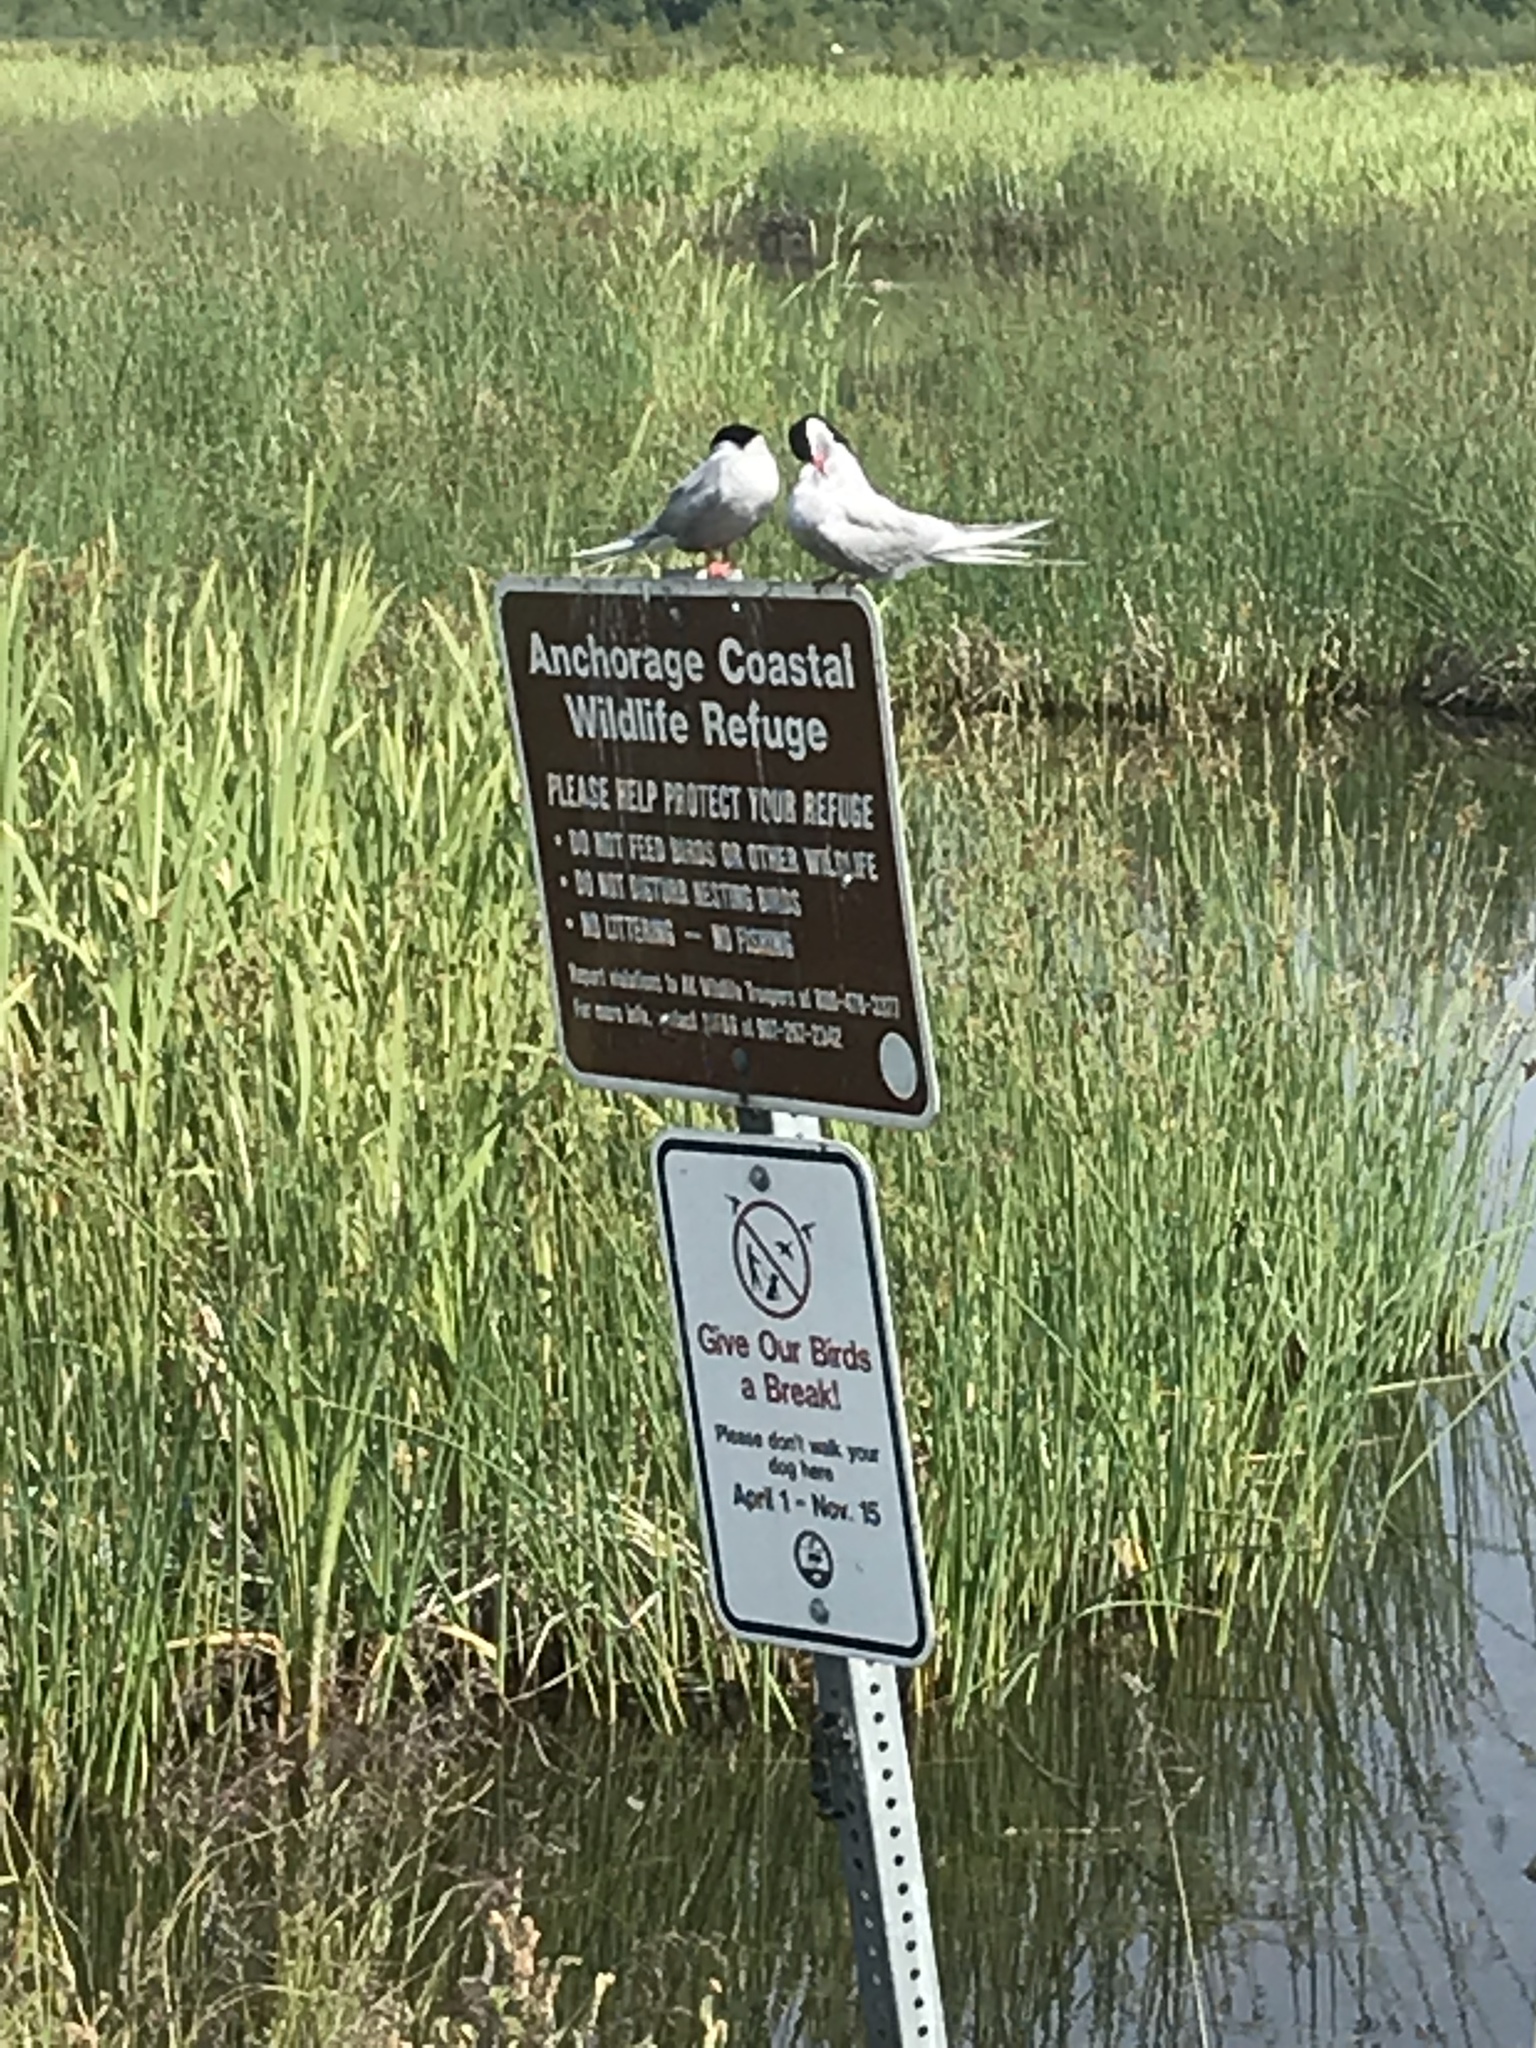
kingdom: Animalia
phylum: Chordata
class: Aves
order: Charadriiformes
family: Laridae
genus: Sterna
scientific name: Sterna paradisaea
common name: Arctic tern
